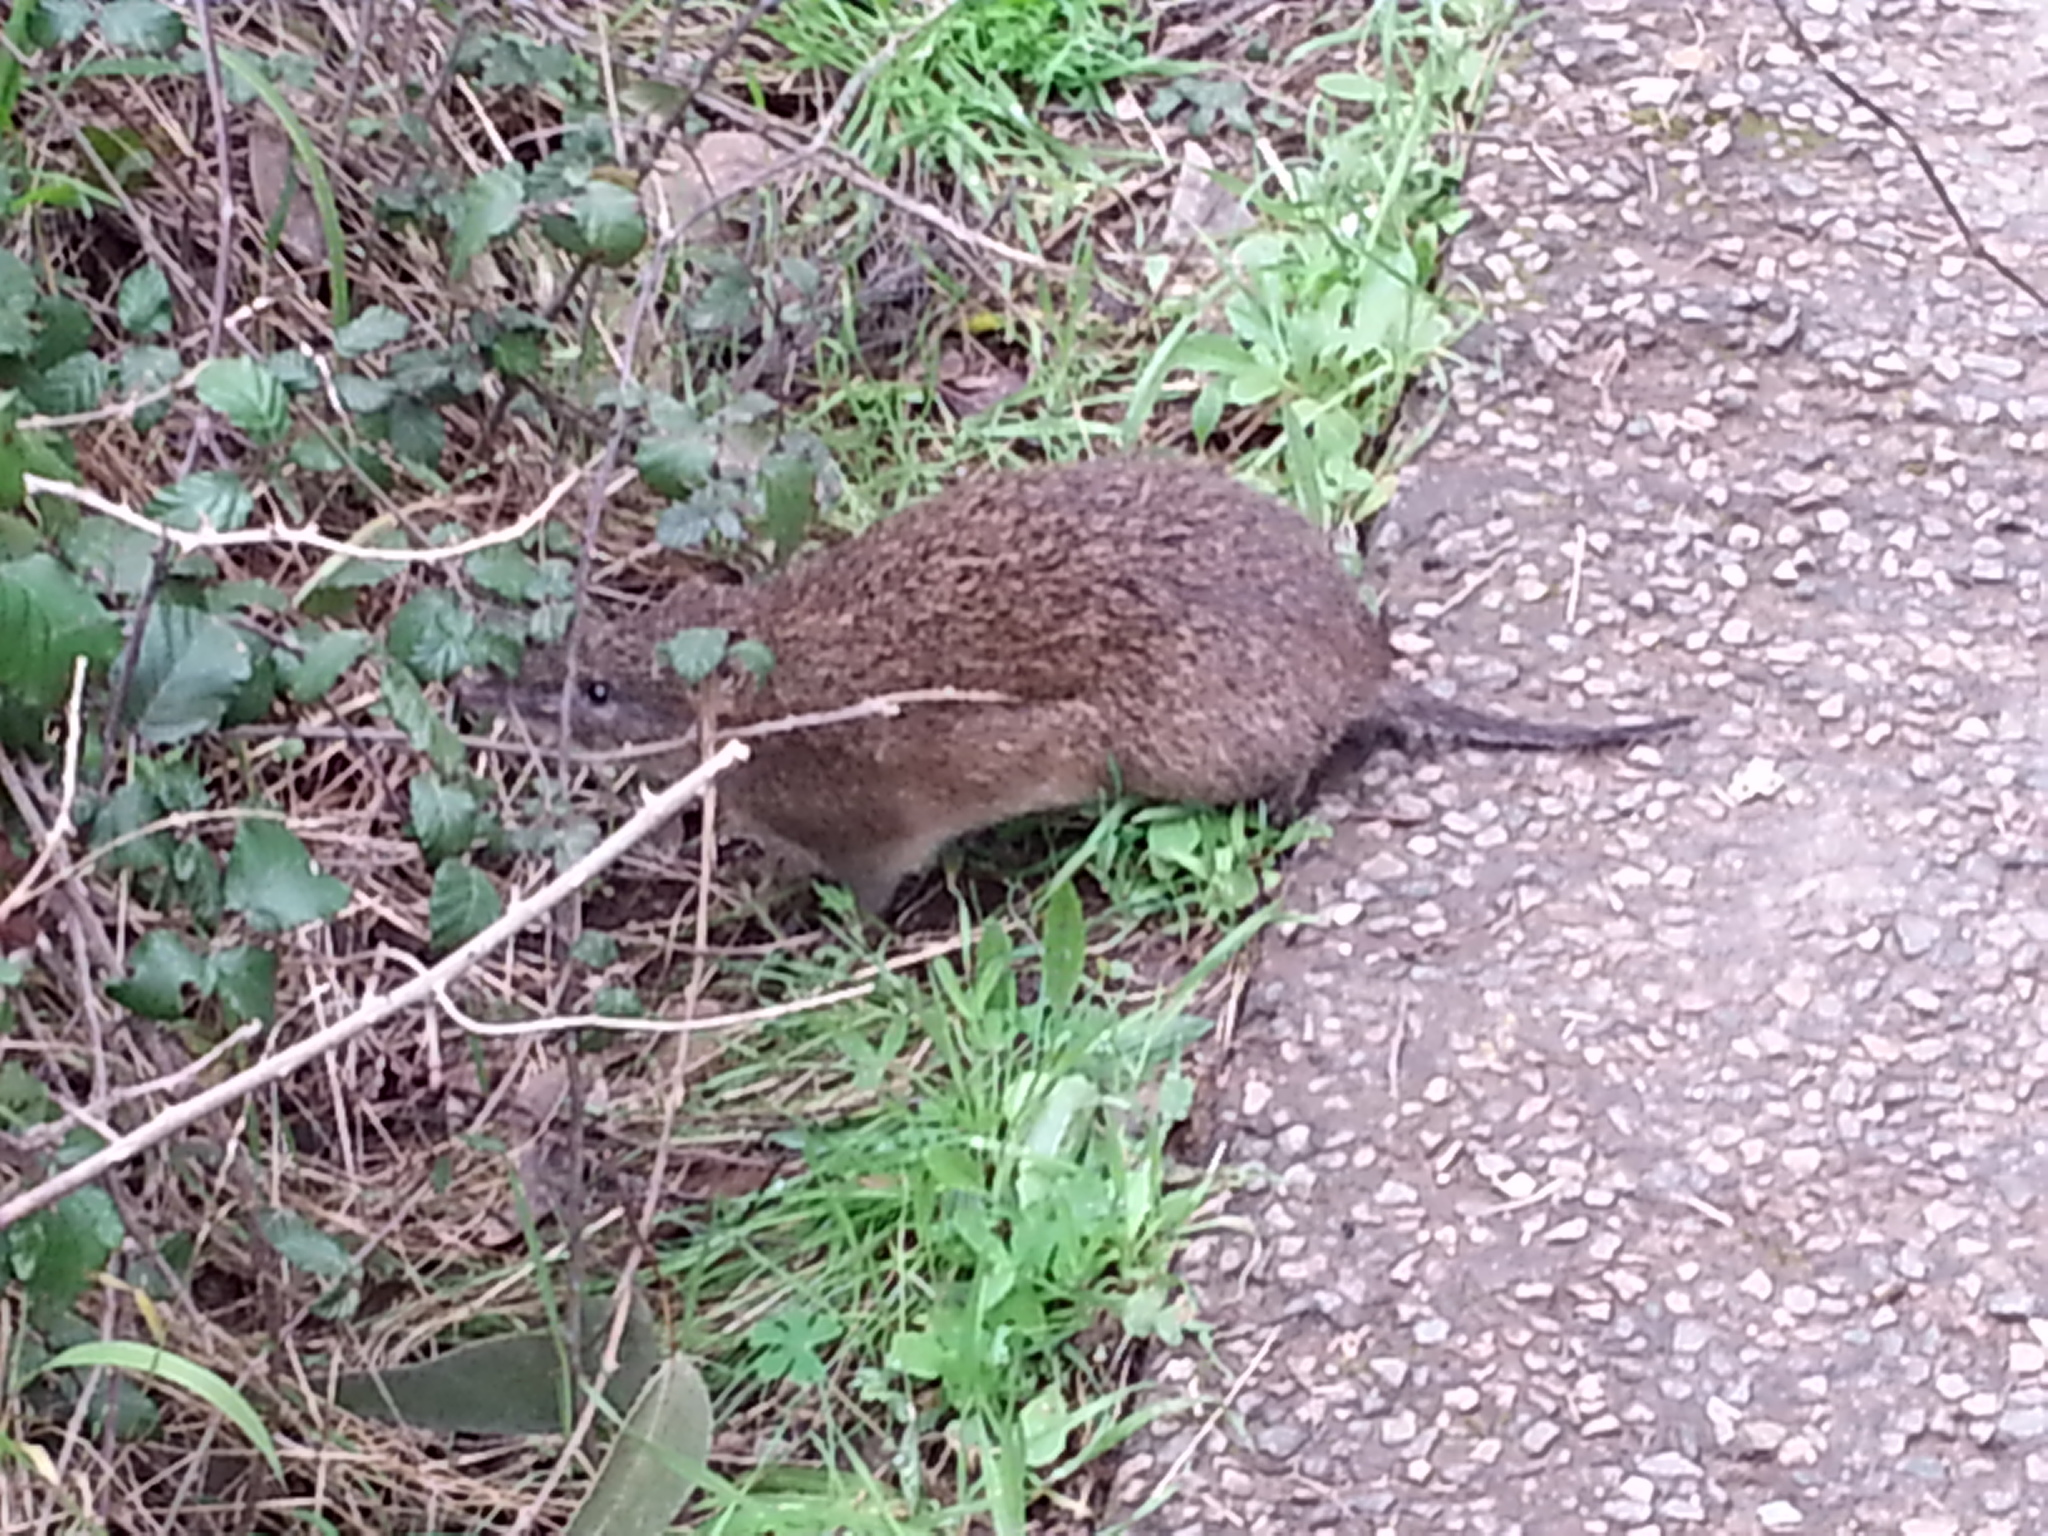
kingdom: Animalia
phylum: Chordata
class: Mammalia
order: Peramelemorphia
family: Peramelidae
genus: Isoodon
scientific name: Isoodon obesulus
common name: Southern brown bandicoot
